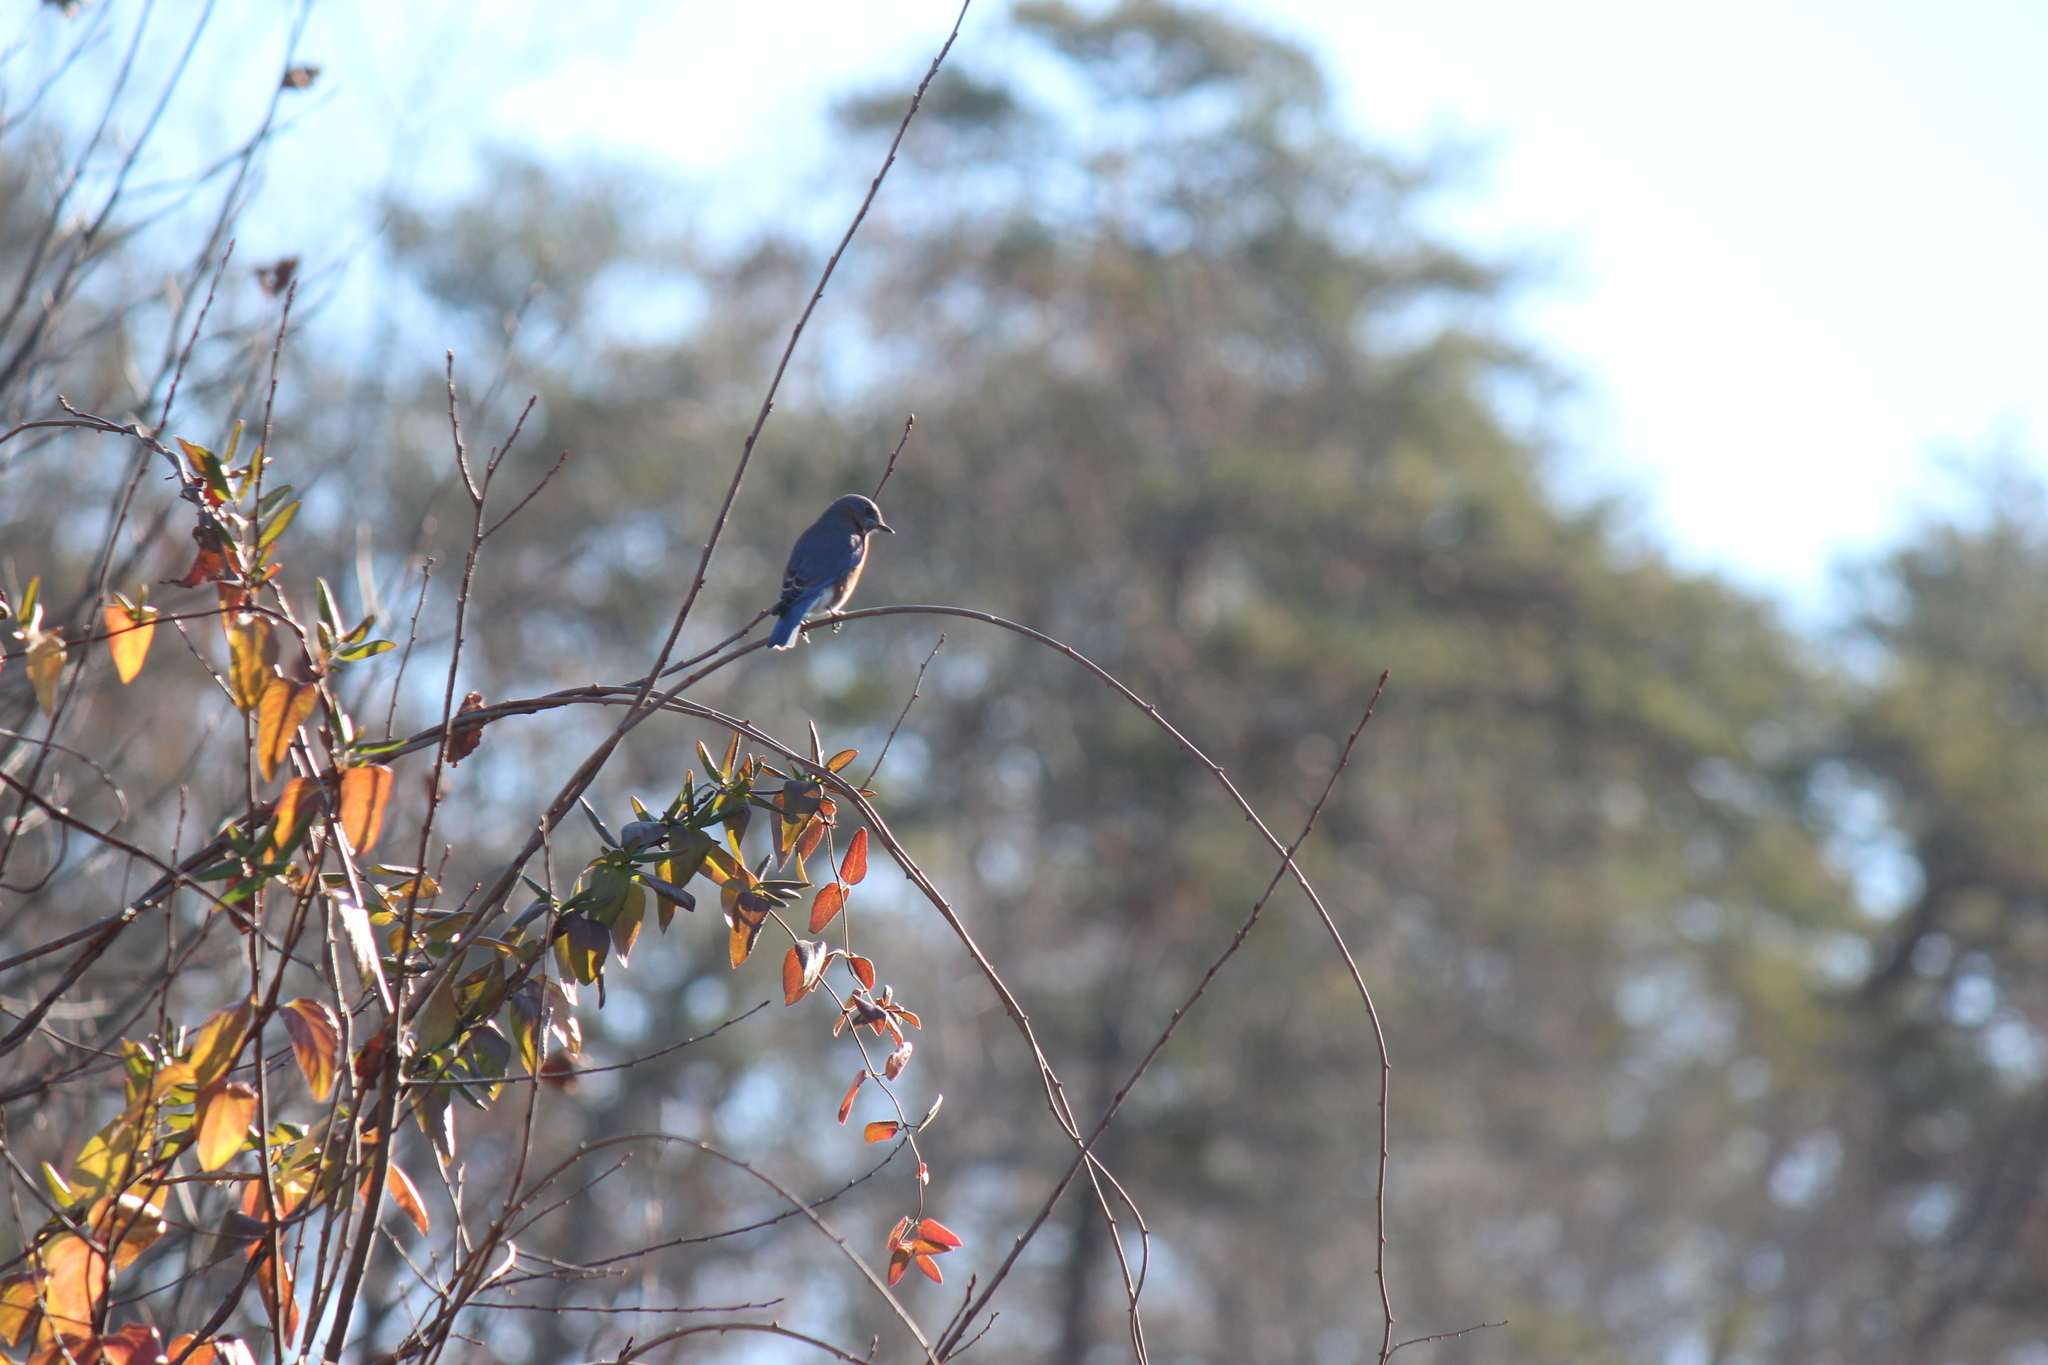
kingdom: Animalia
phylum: Chordata
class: Aves
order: Passeriformes
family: Turdidae
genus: Sialia
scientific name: Sialia sialis
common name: Eastern bluebird
